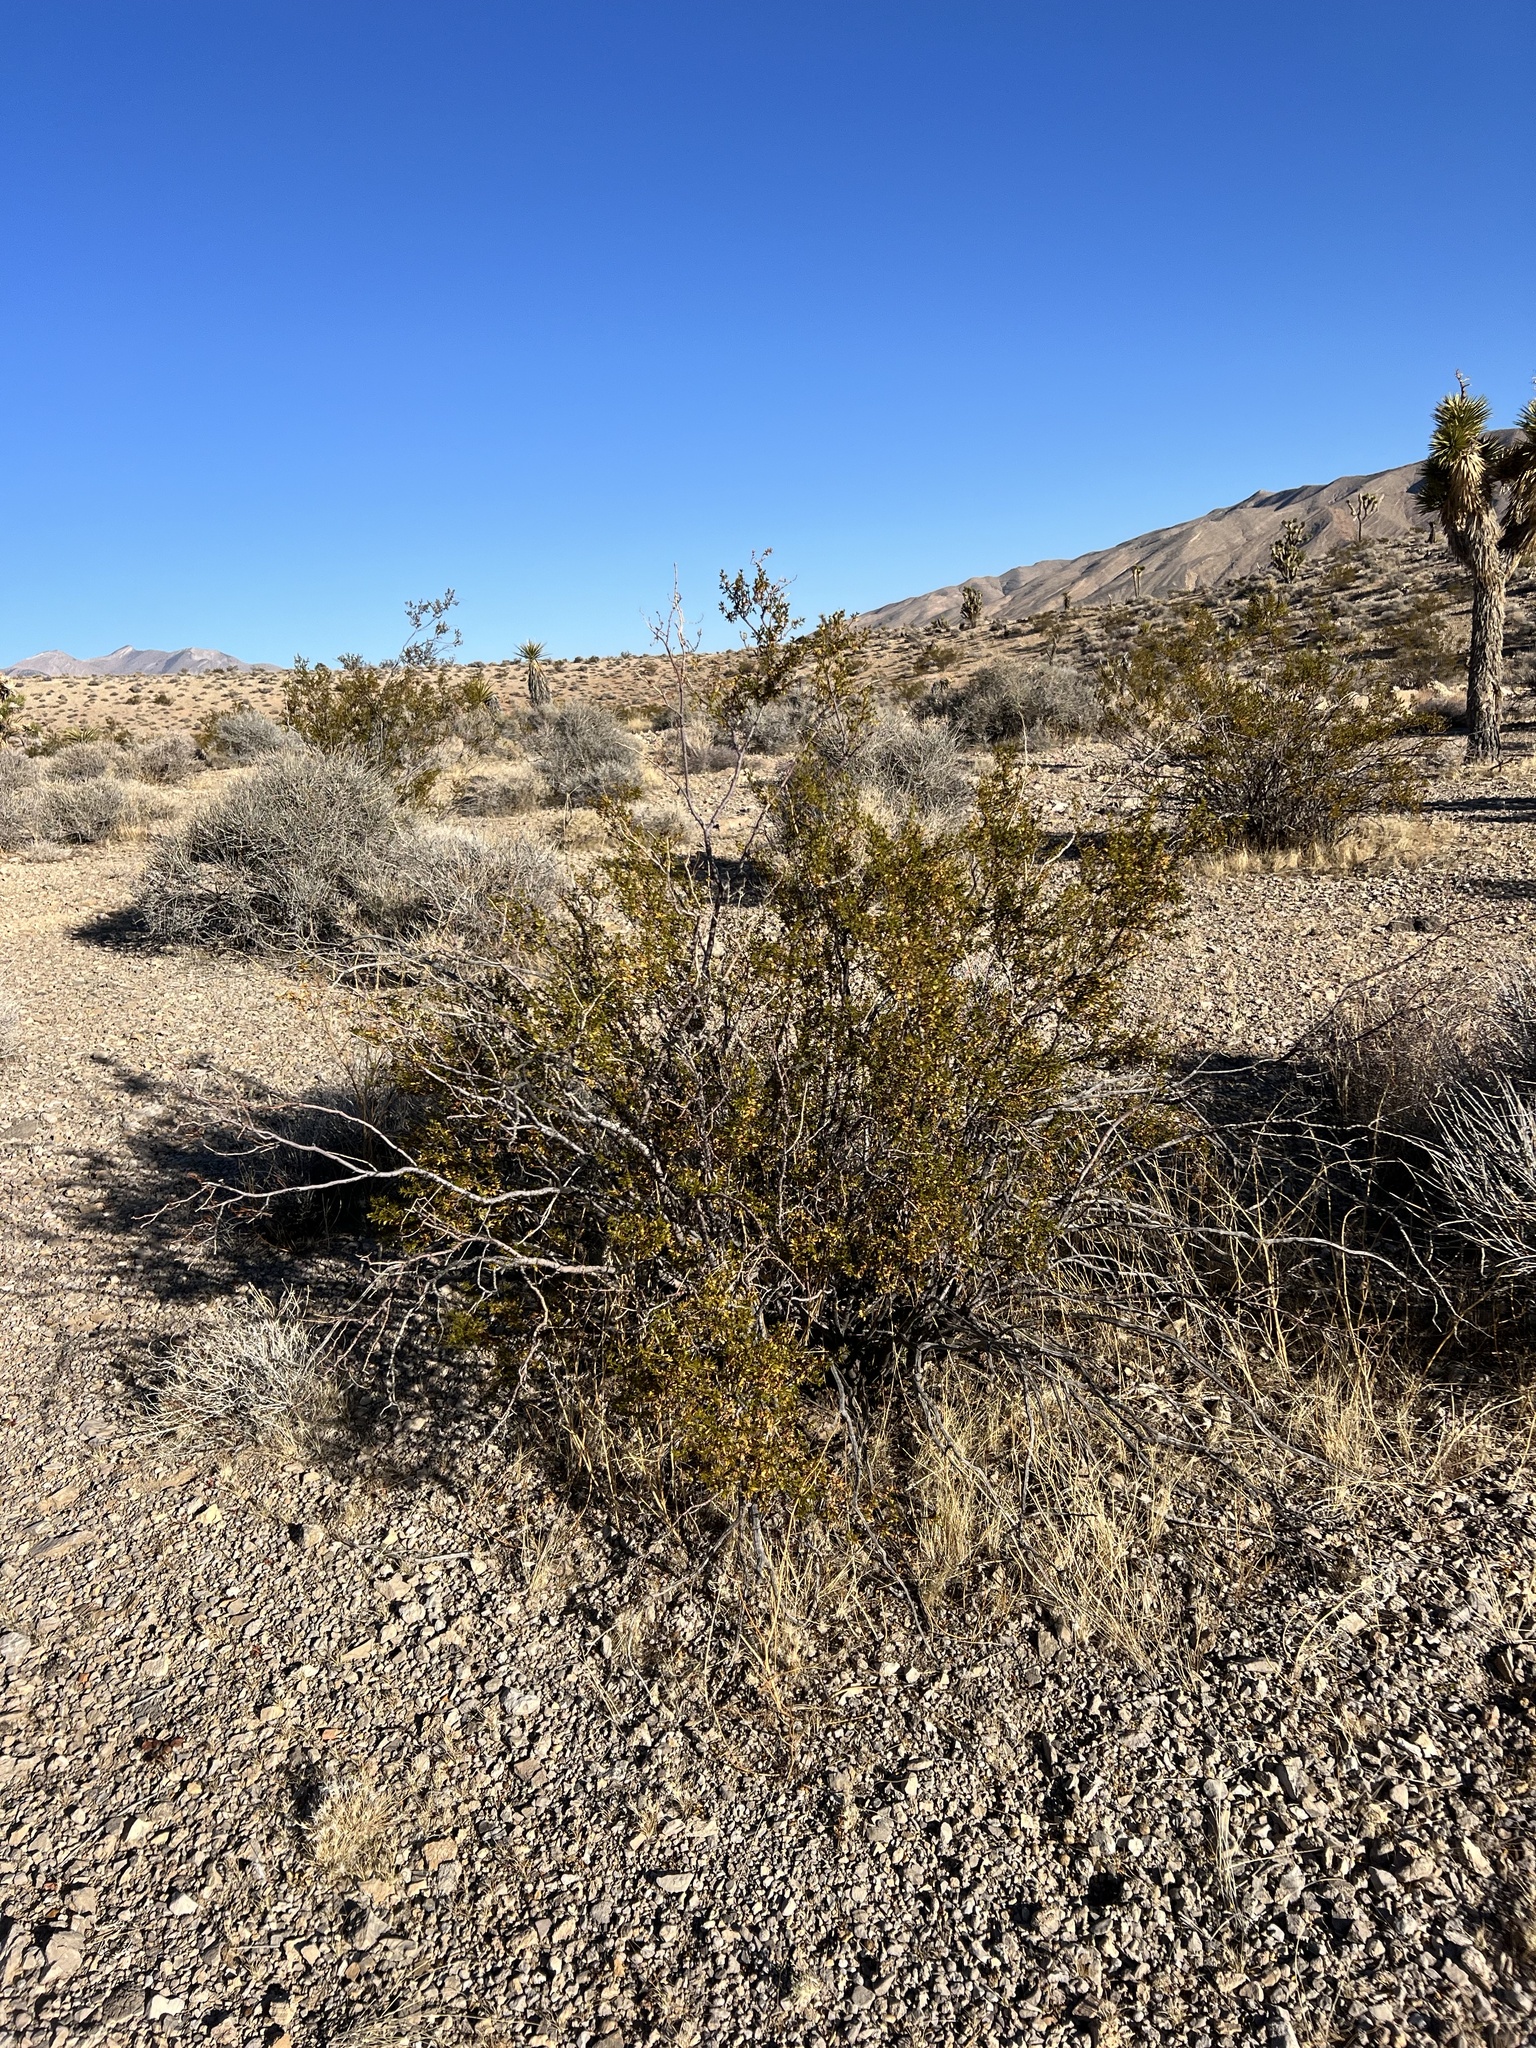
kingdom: Plantae
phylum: Tracheophyta
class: Magnoliopsida
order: Zygophyllales
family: Zygophyllaceae
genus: Larrea
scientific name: Larrea tridentata
